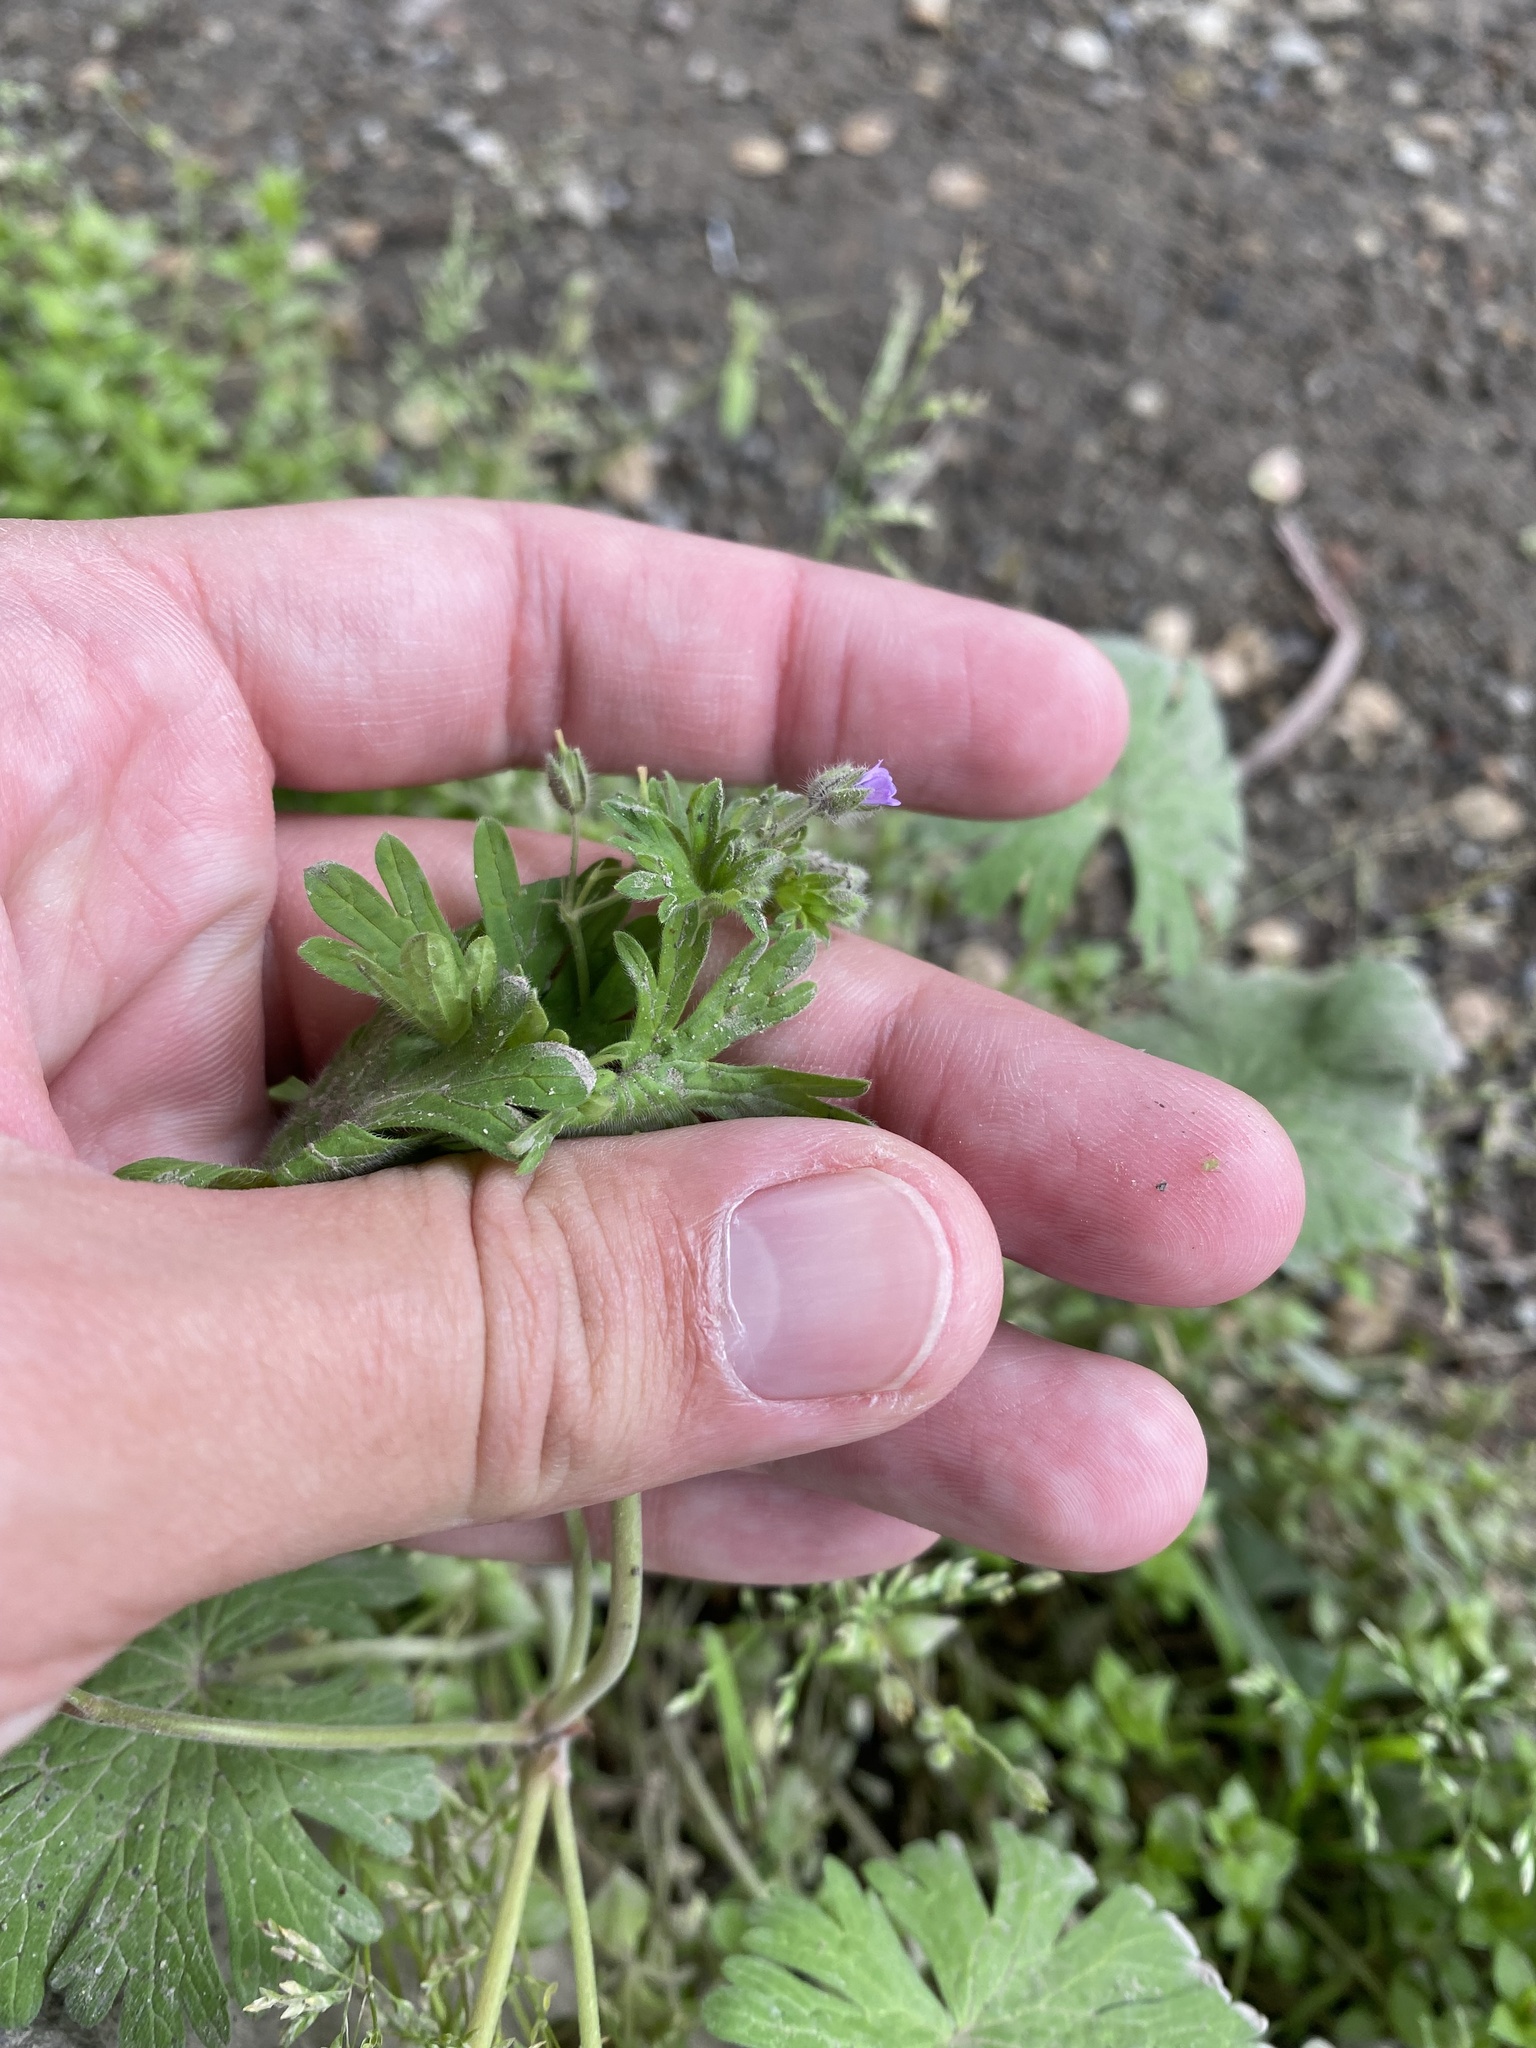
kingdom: Plantae
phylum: Tracheophyta
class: Magnoliopsida
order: Geraniales
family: Geraniaceae
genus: Geranium
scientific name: Geranium pusillum
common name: Small geranium
